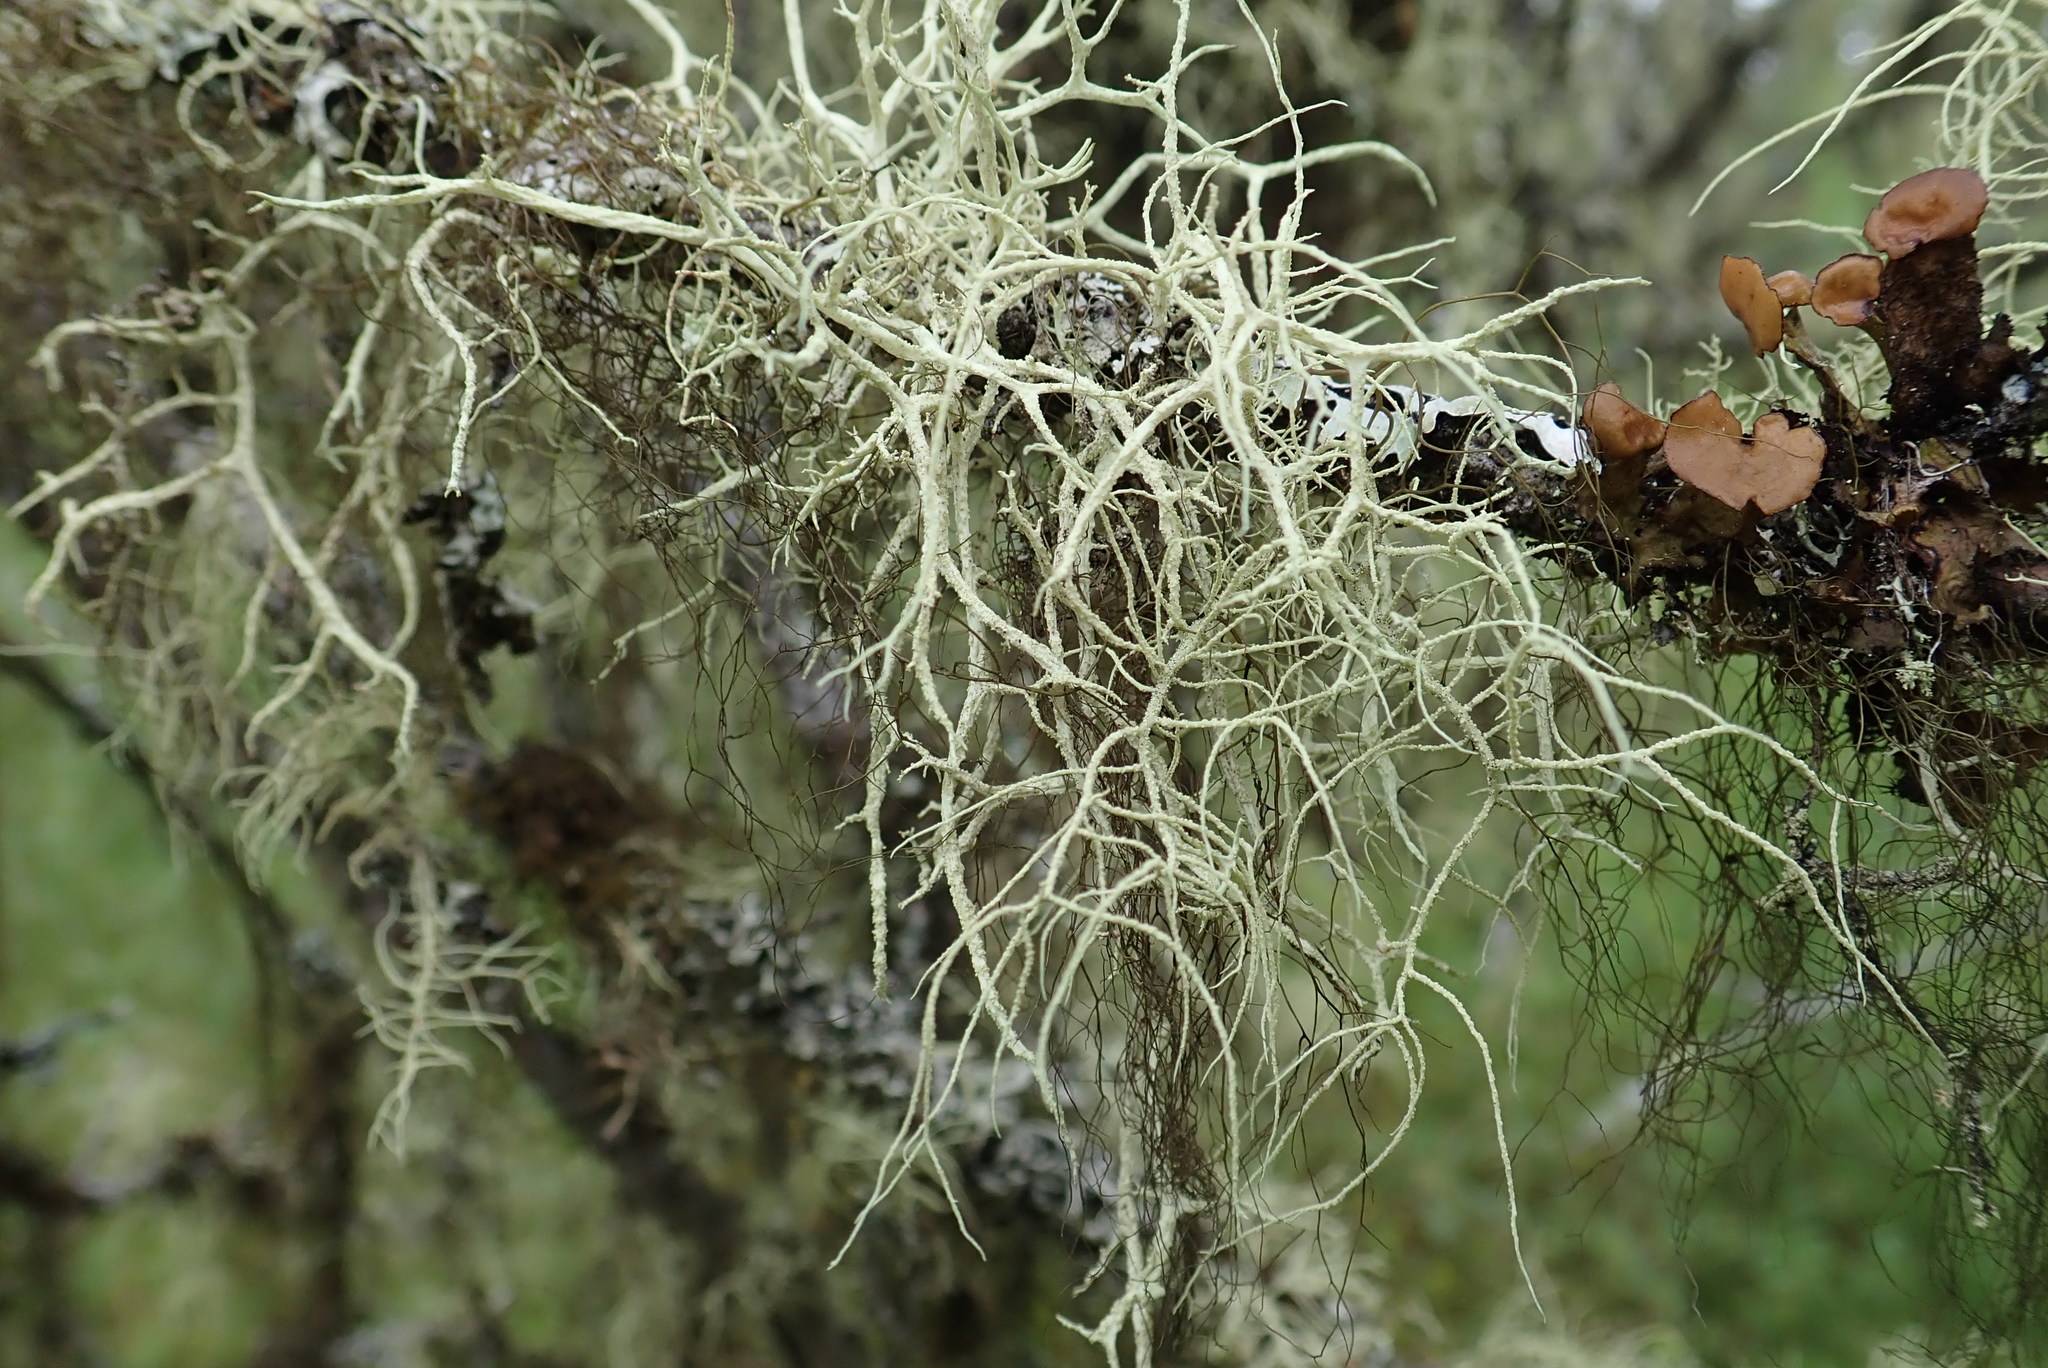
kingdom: Fungi
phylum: Ascomycota
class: Lecanoromycetes
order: Lecanorales
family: Parmeliaceae
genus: Evernia
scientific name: Evernia mesomorpha
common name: Boreal oak moss lichen
